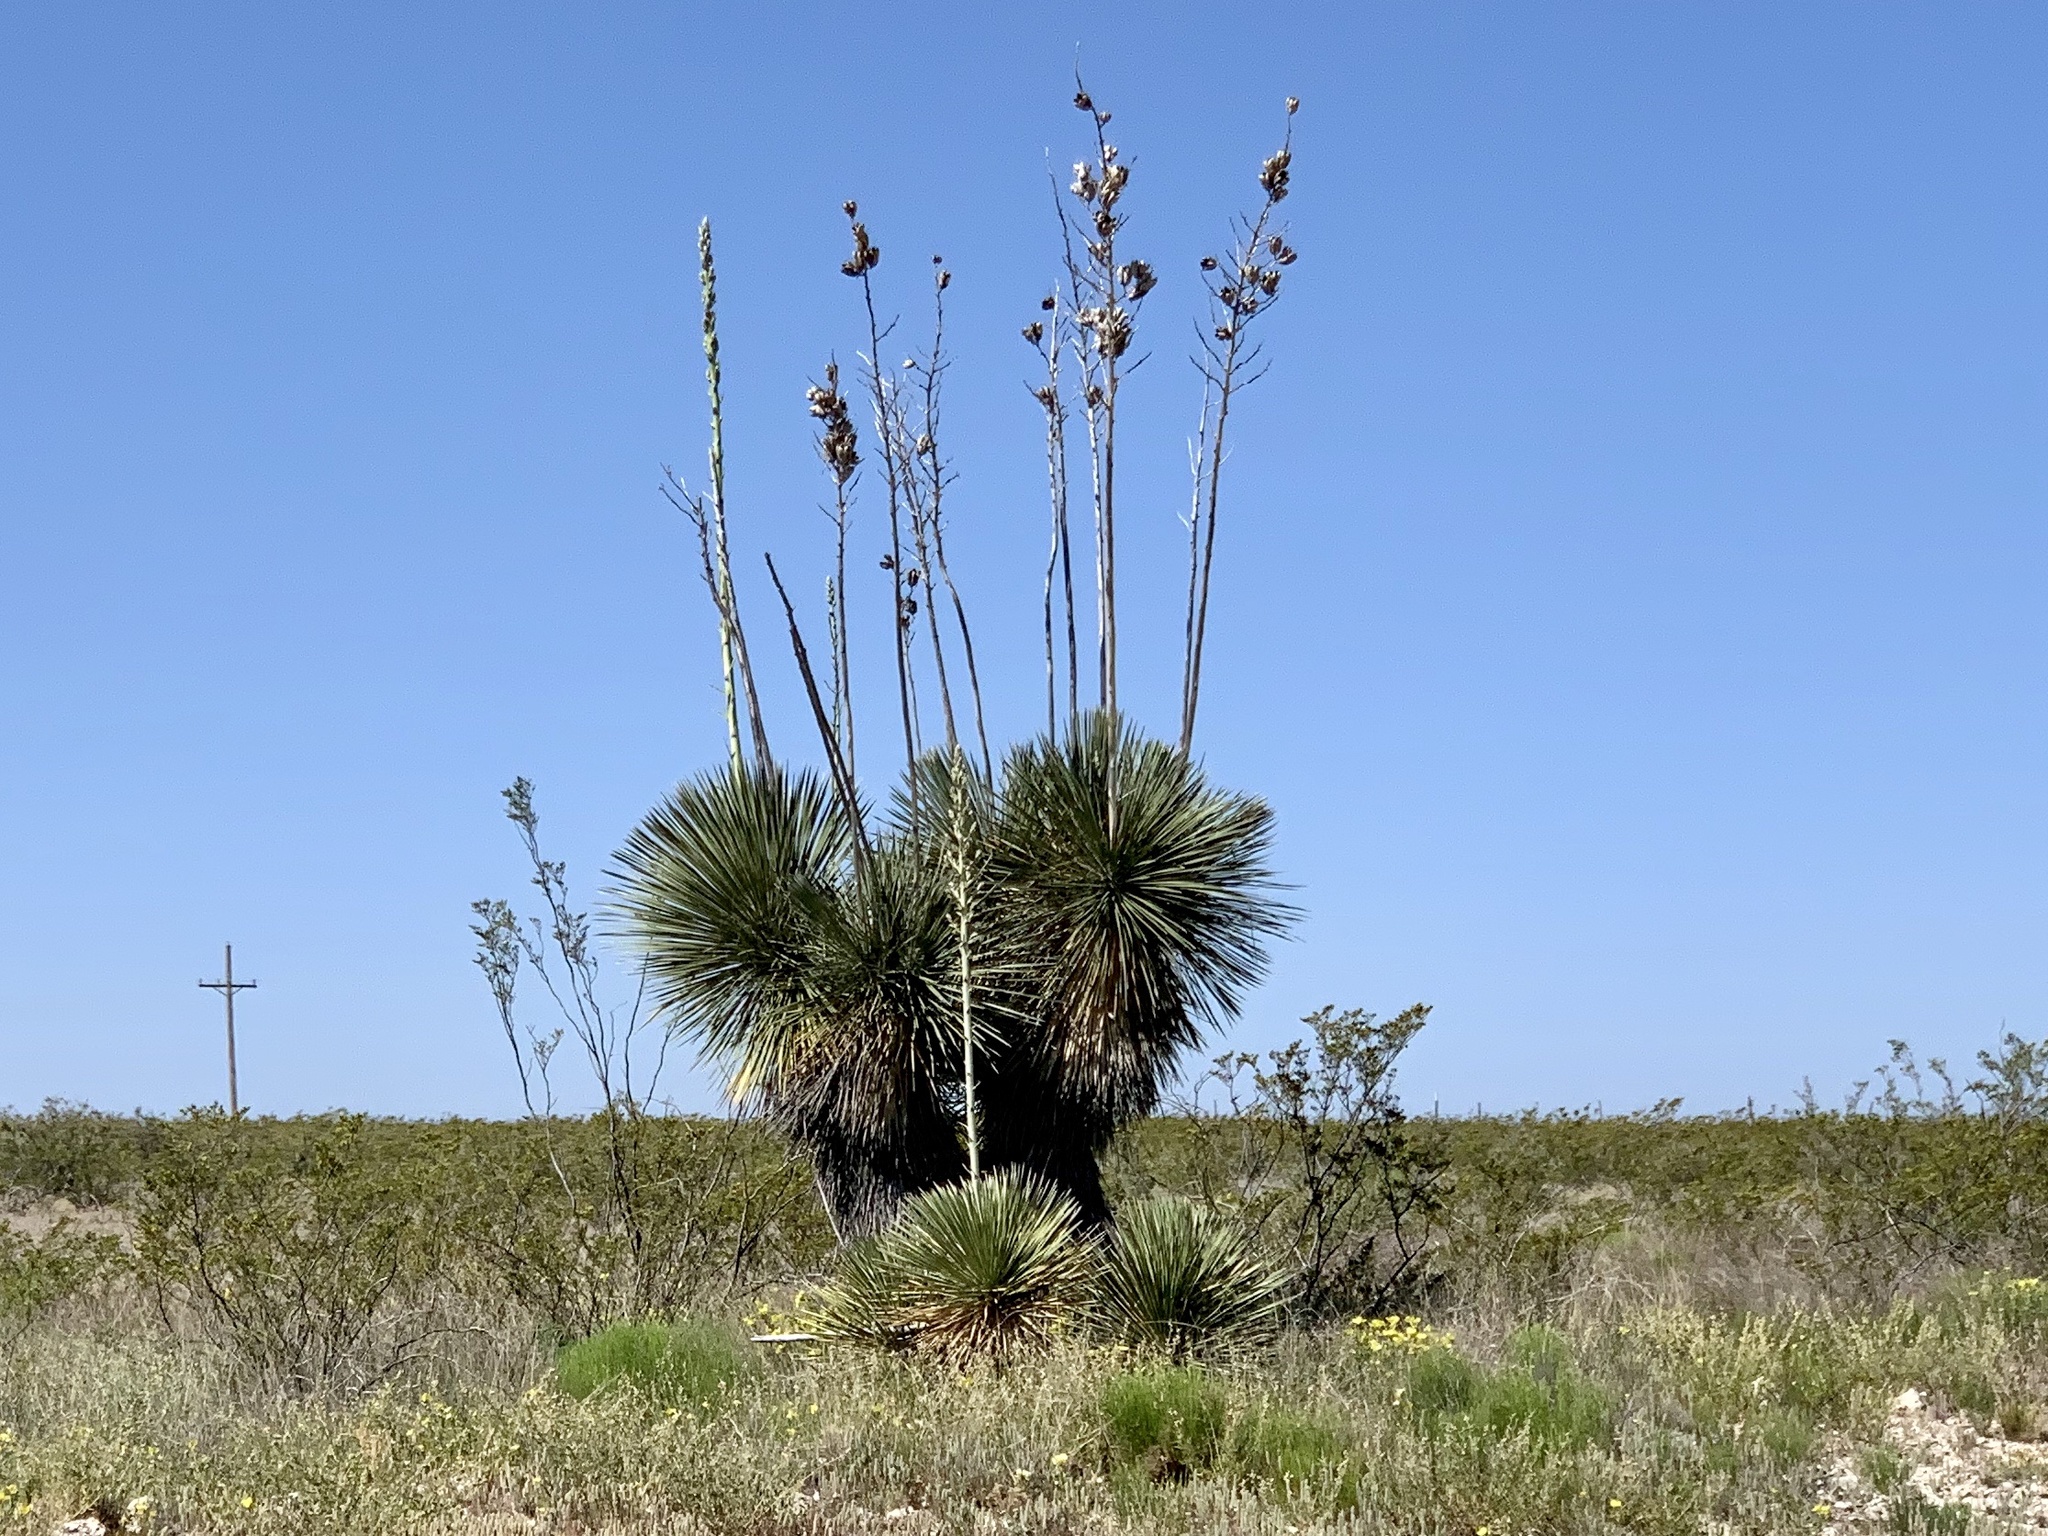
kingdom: Plantae
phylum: Tracheophyta
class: Liliopsida
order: Asparagales
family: Asparagaceae
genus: Yucca
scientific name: Yucca elata
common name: Palmella
